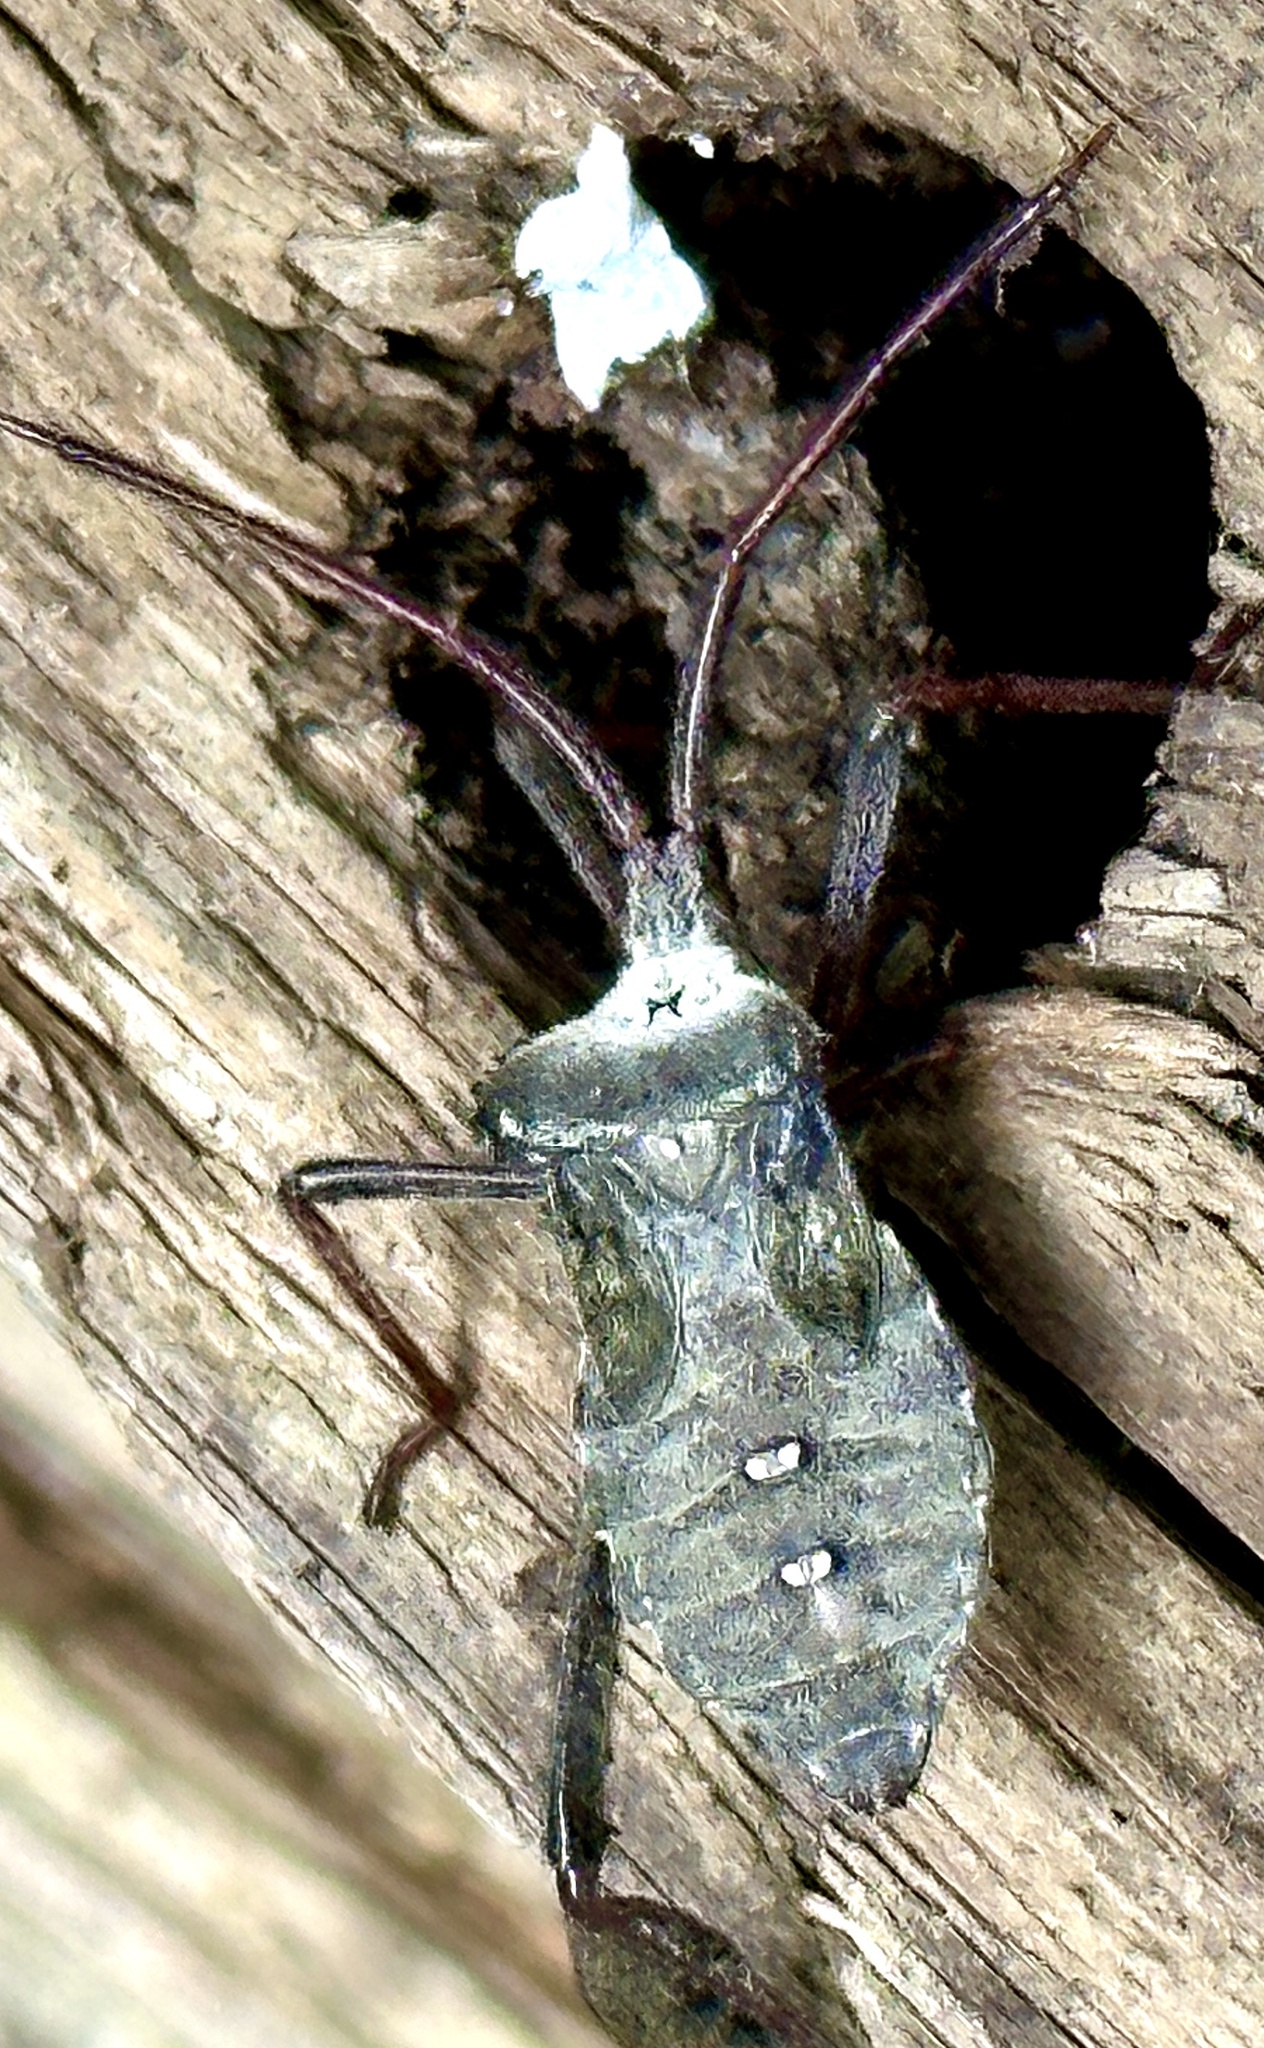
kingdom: Animalia
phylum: Arthropoda
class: Insecta
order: Hemiptera
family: Coreidae
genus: Acanthocephala
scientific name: Acanthocephala declivis
